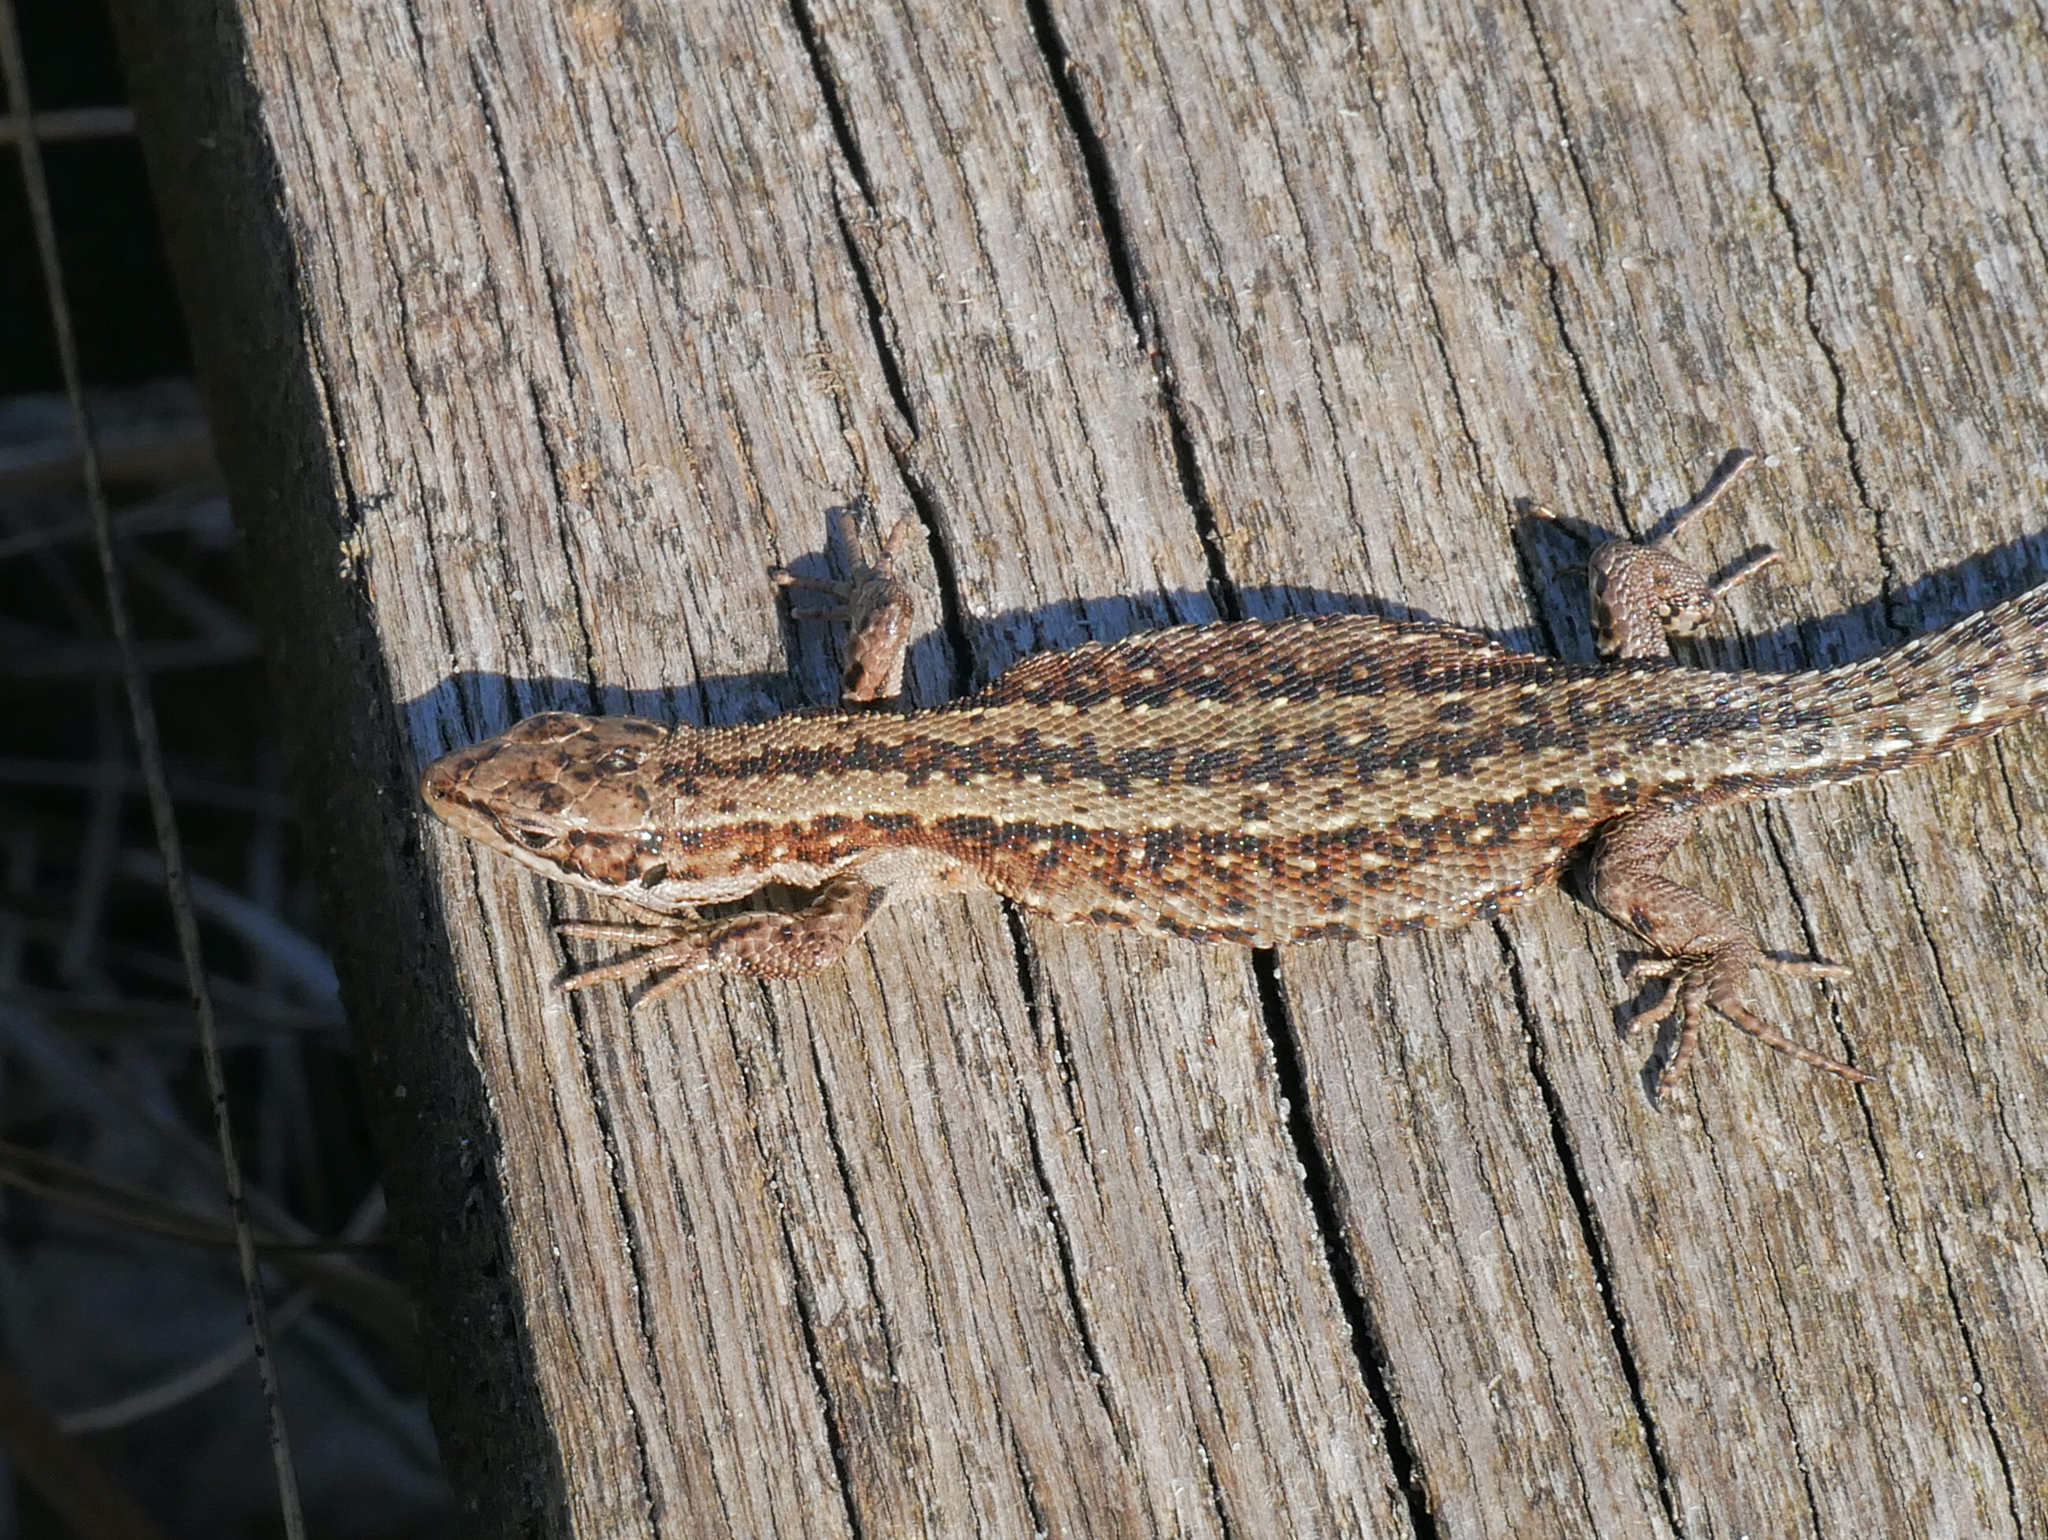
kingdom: Animalia
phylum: Chordata
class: Squamata
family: Lacertidae
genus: Zootoca
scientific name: Zootoca vivipara
